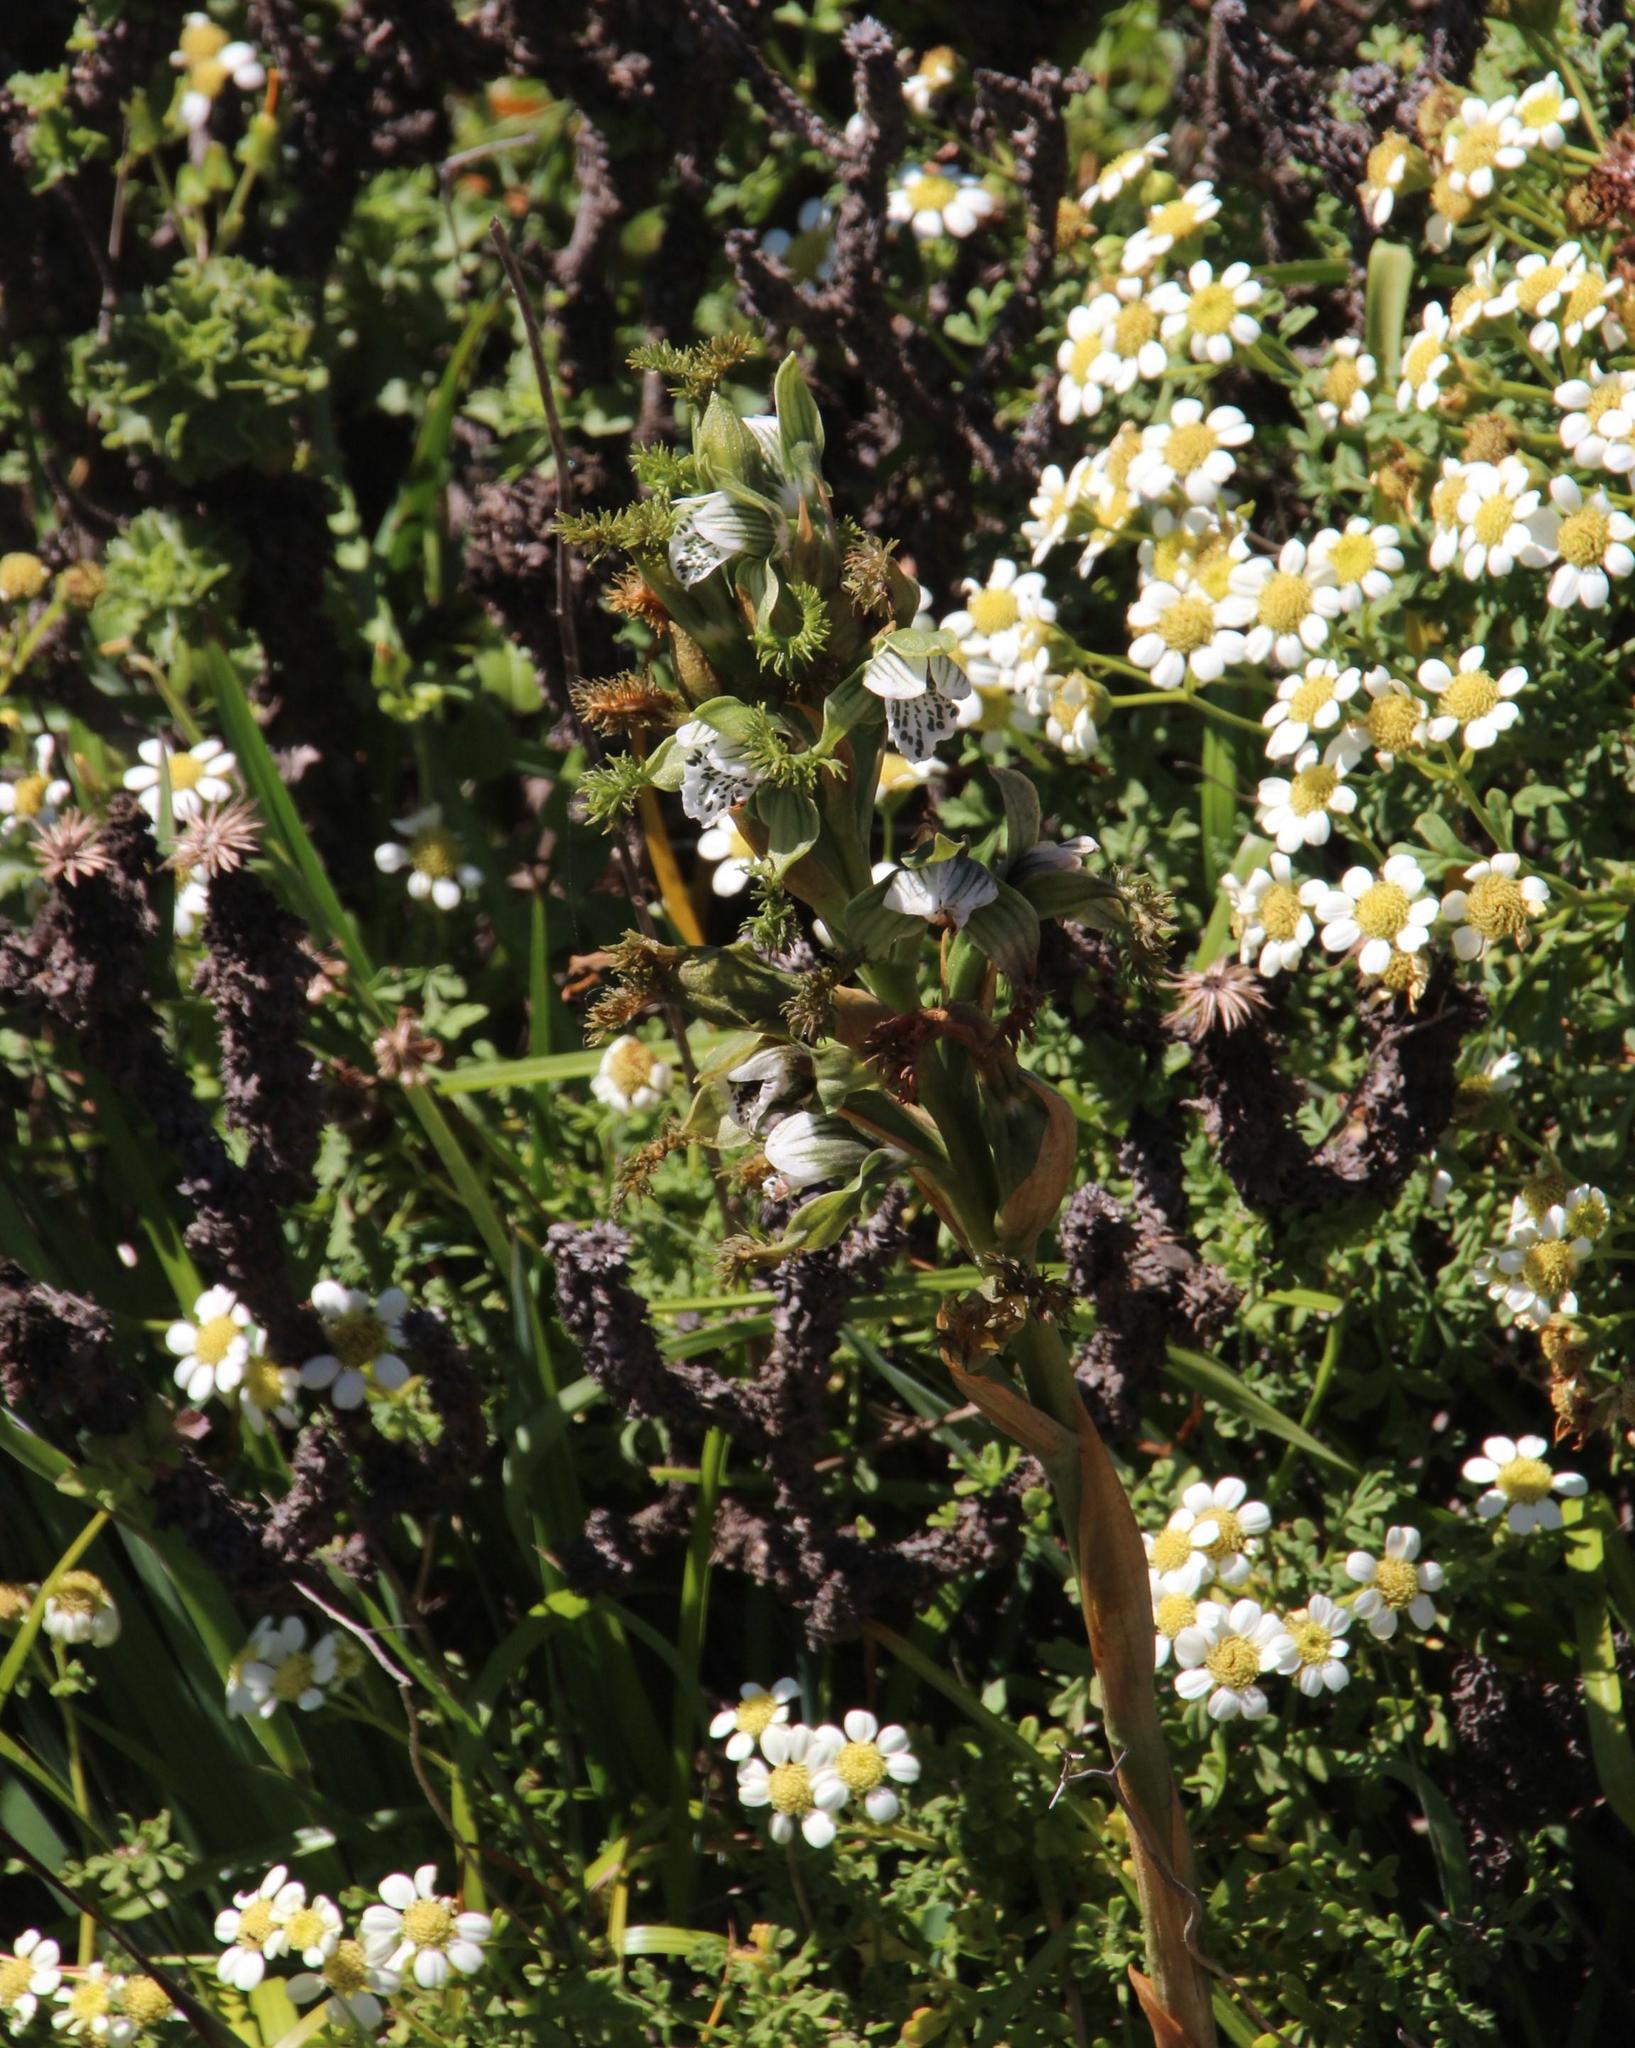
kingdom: Plantae
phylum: Tracheophyta
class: Liliopsida
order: Asparagales
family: Orchidaceae
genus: Bipinnula
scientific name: Bipinnula fimbriata
